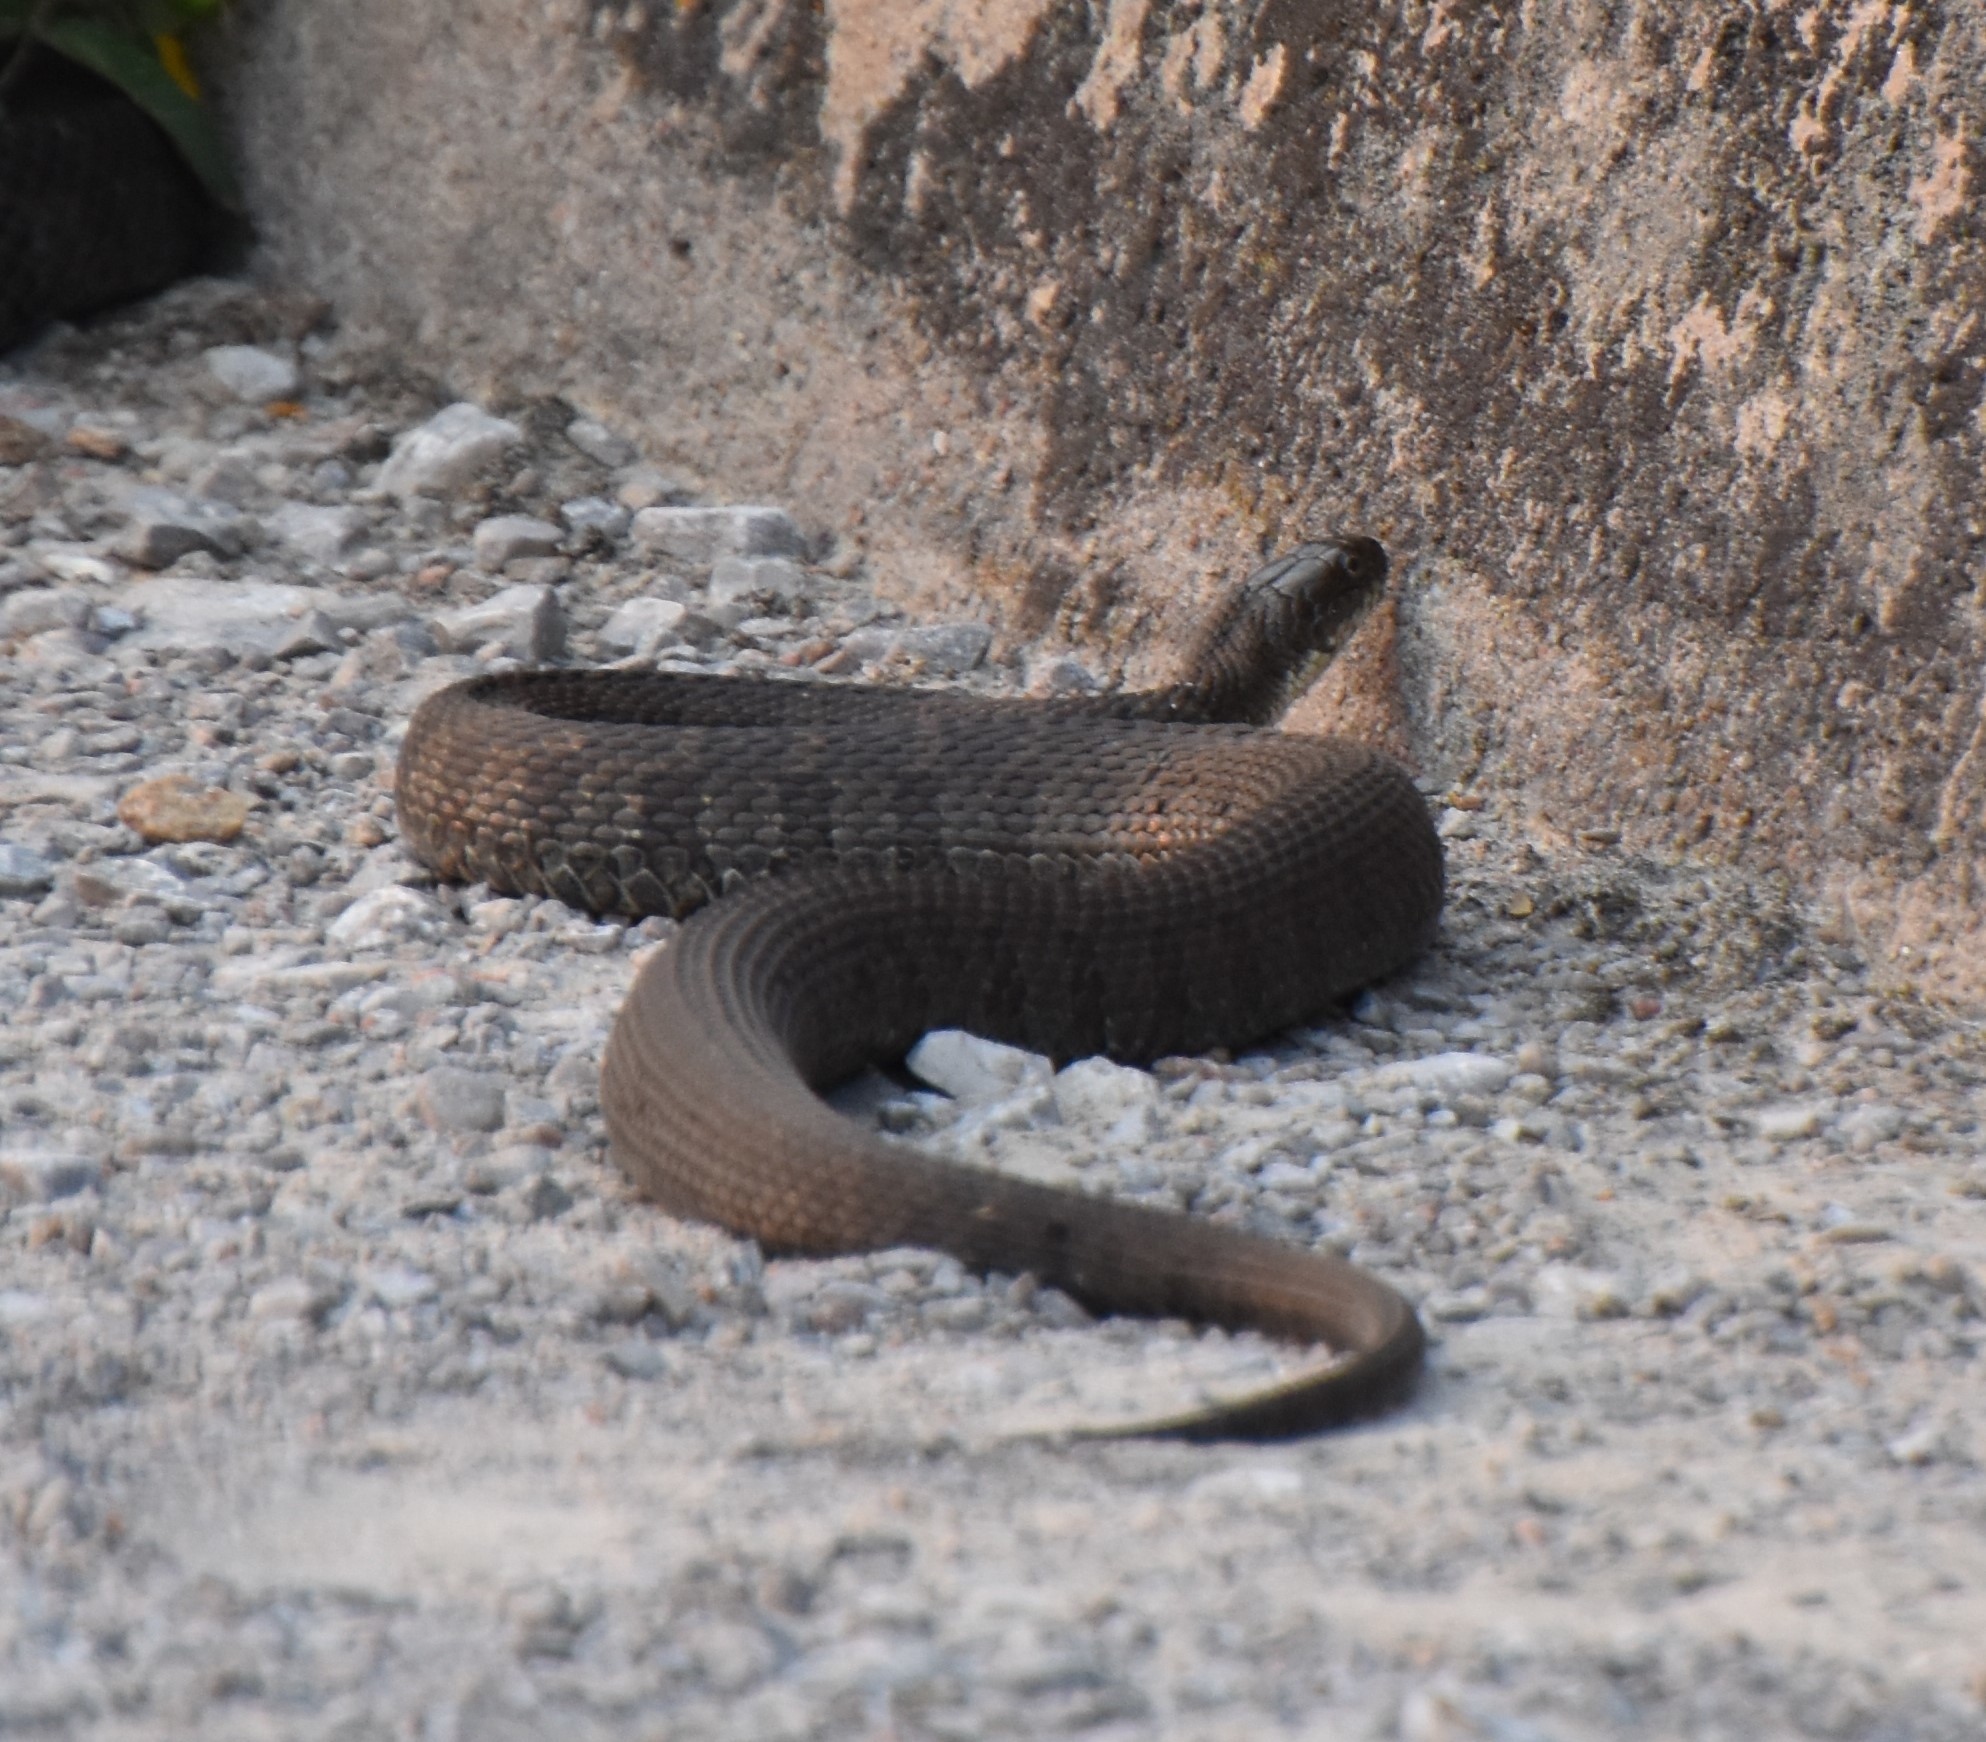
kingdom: Animalia
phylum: Chordata
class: Squamata
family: Colubridae
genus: Nerodia
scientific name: Nerodia sipedon
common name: Northern water snake
